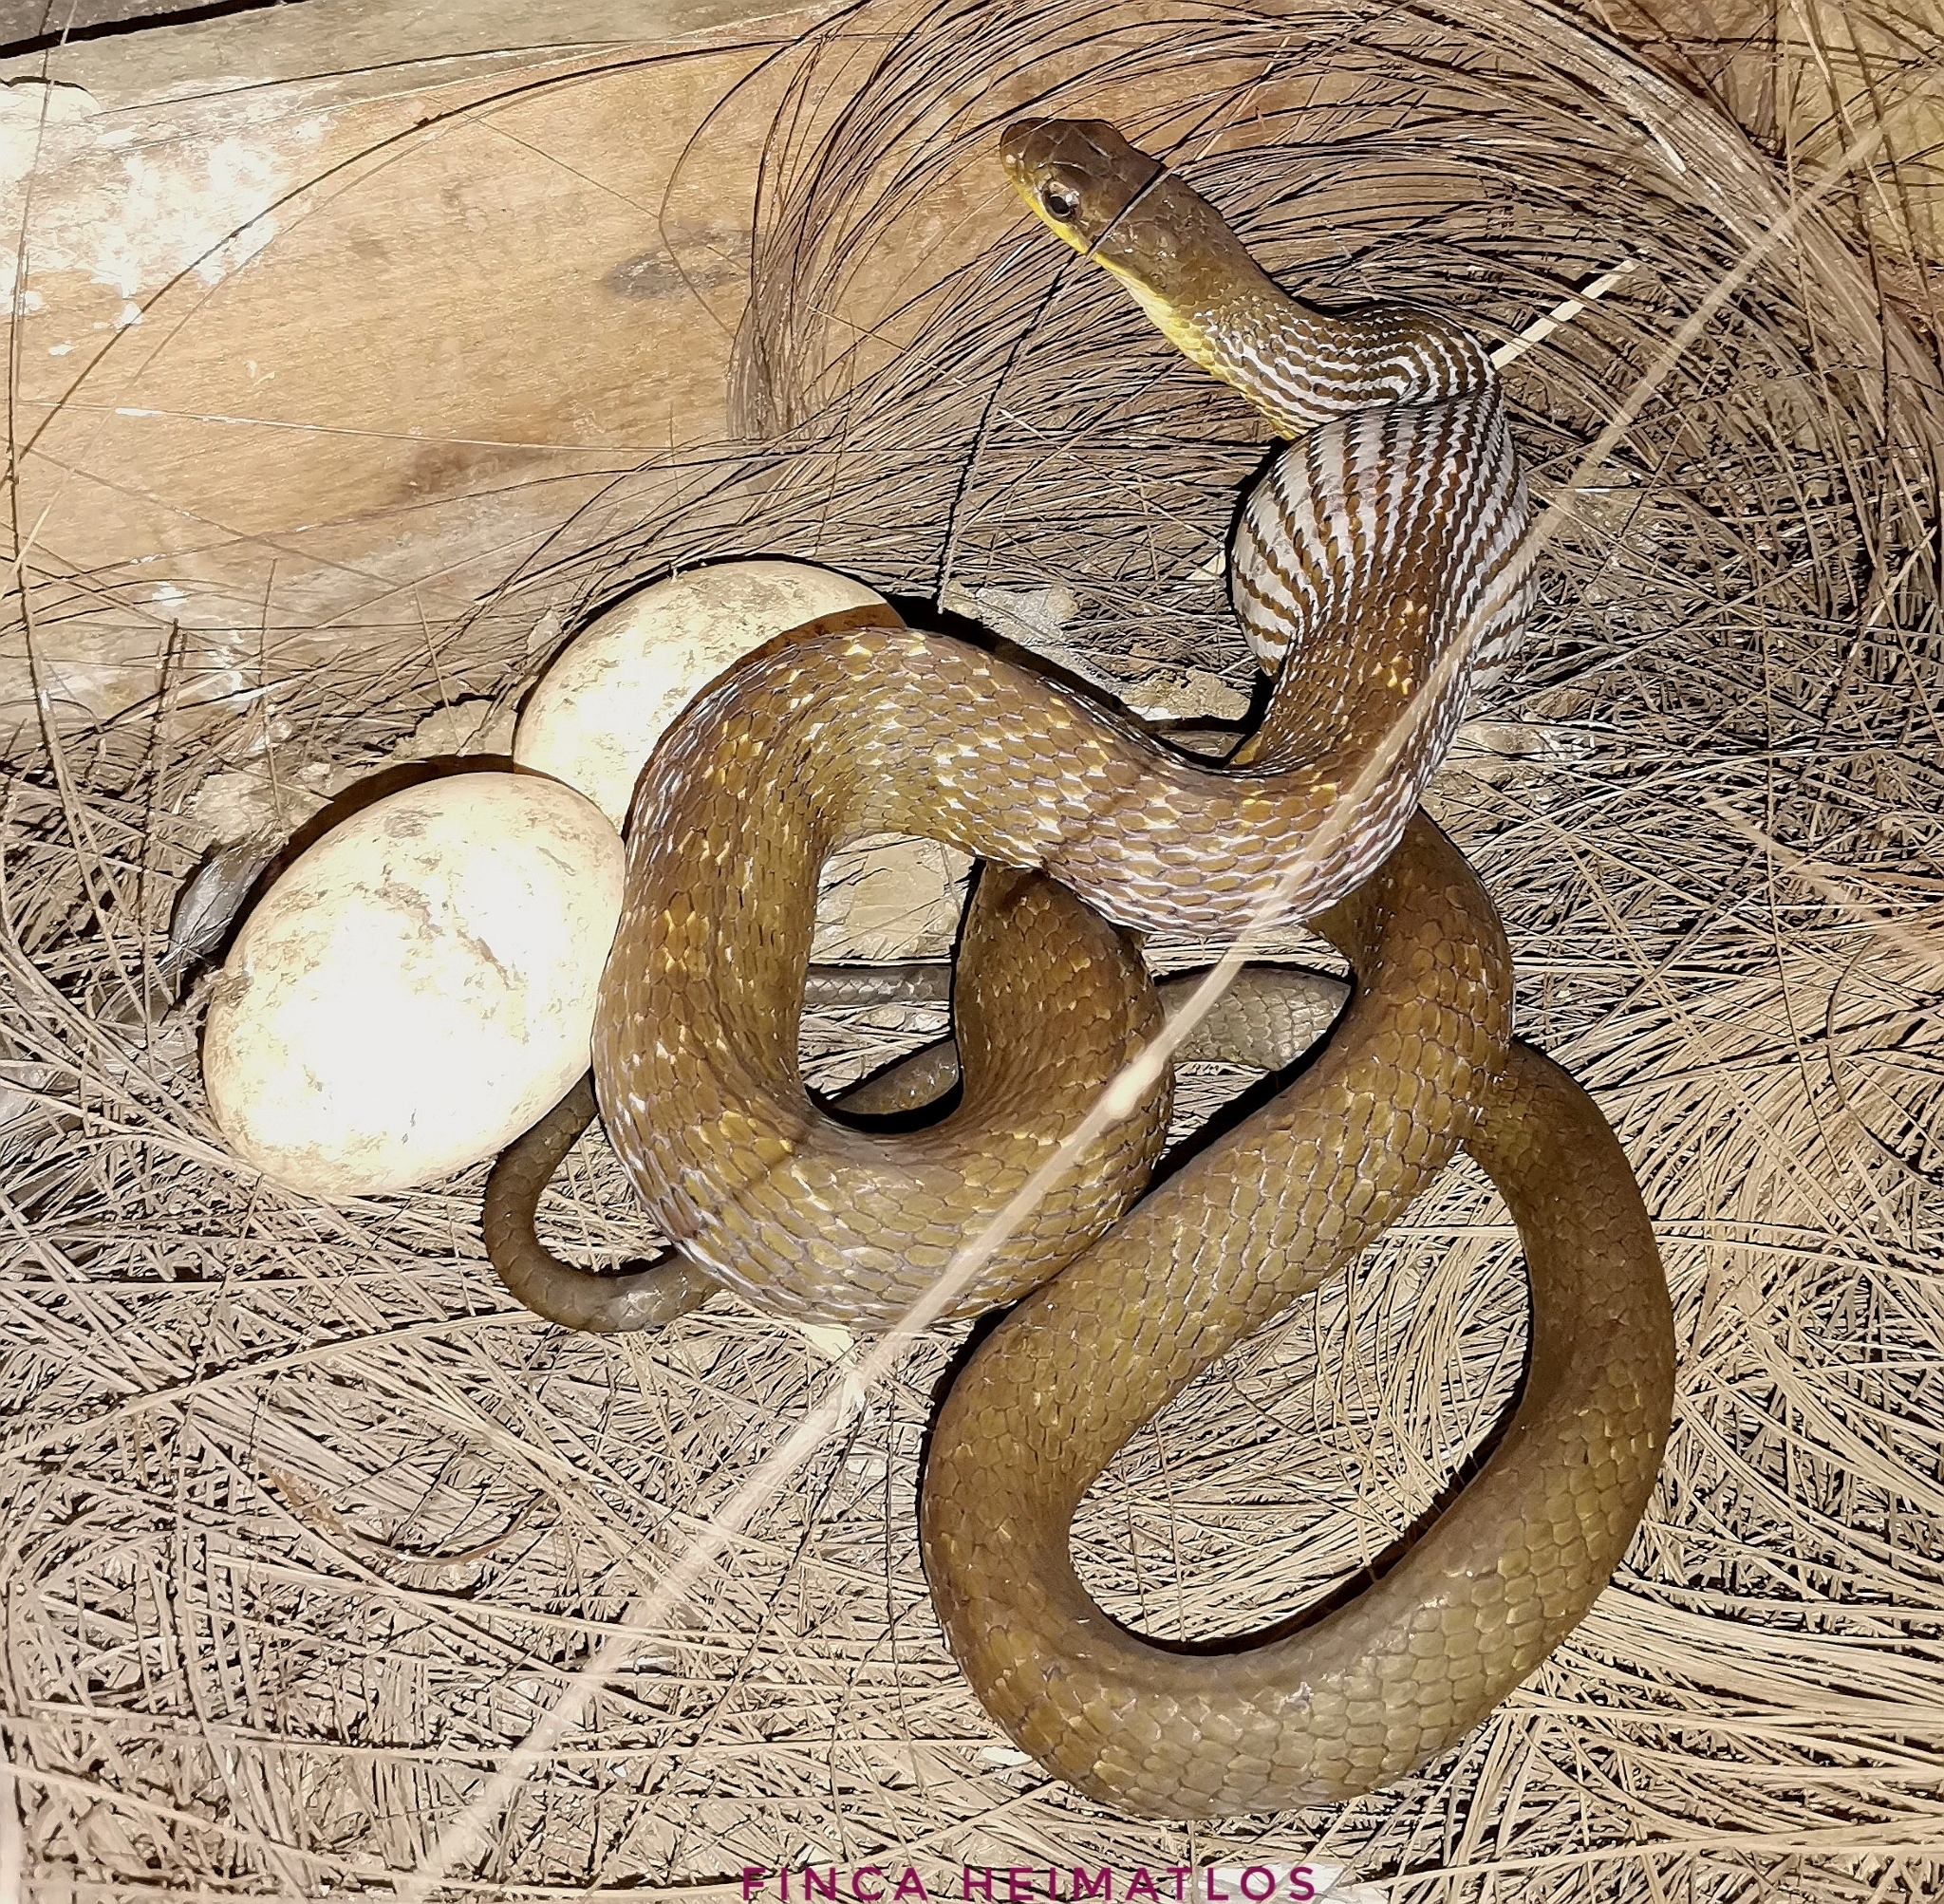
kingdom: Animalia
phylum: Chordata
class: Squamata
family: Colubridae
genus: Chironius
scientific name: Chironius quadricarinatus
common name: Central sipo
